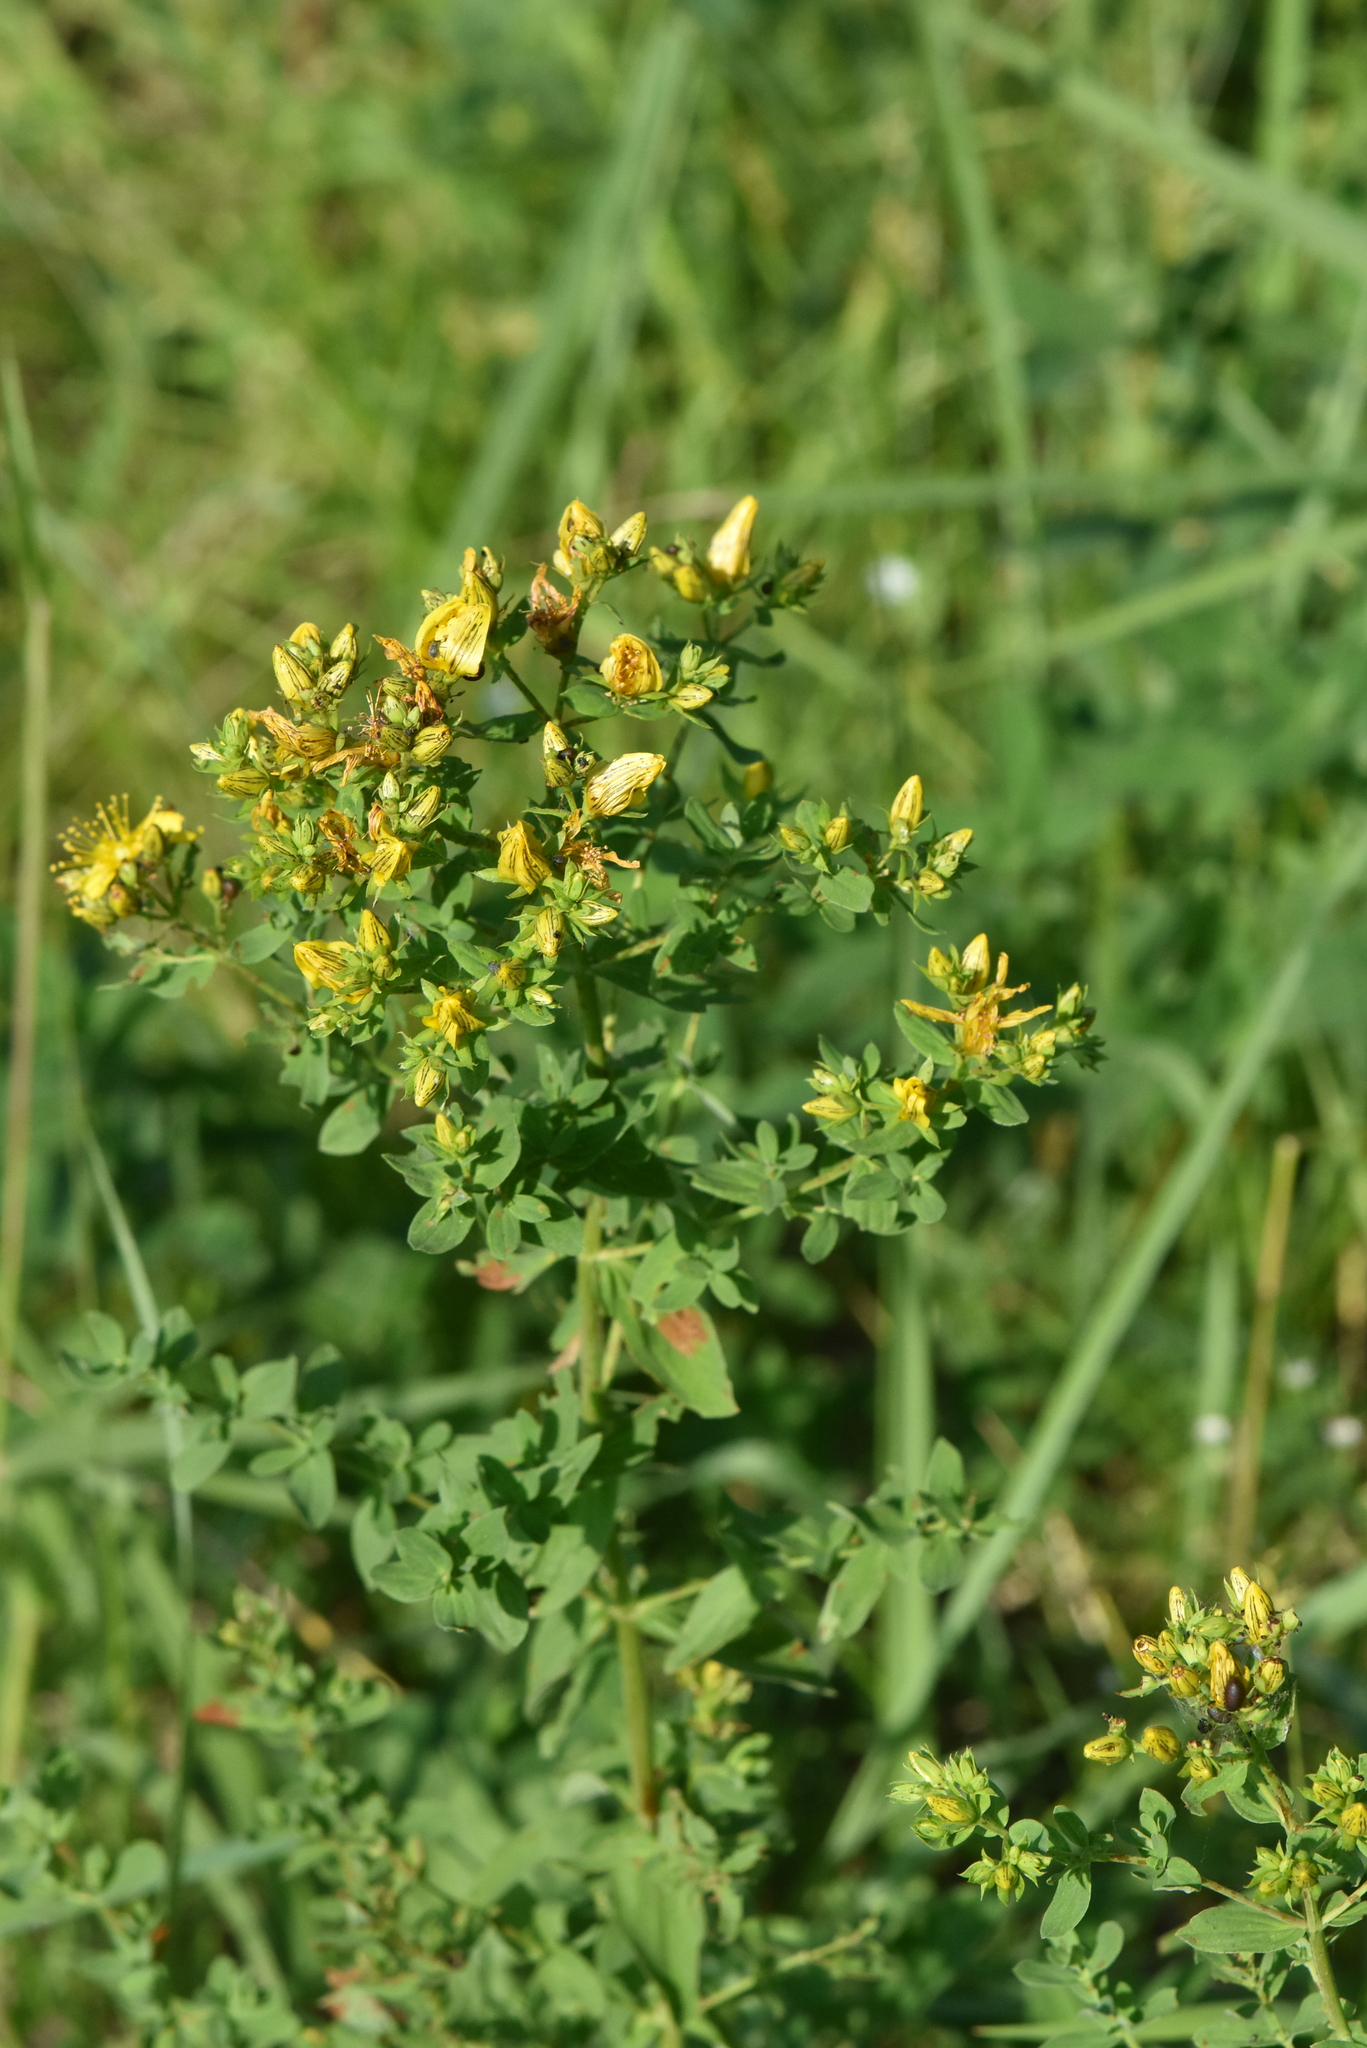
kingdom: Plantae
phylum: Tracheophyta
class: Magnoliopsida
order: Malpighiales
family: Hypericaceae
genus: Hypericum
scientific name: Hypericum perforatum
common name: Common st. johnswort
